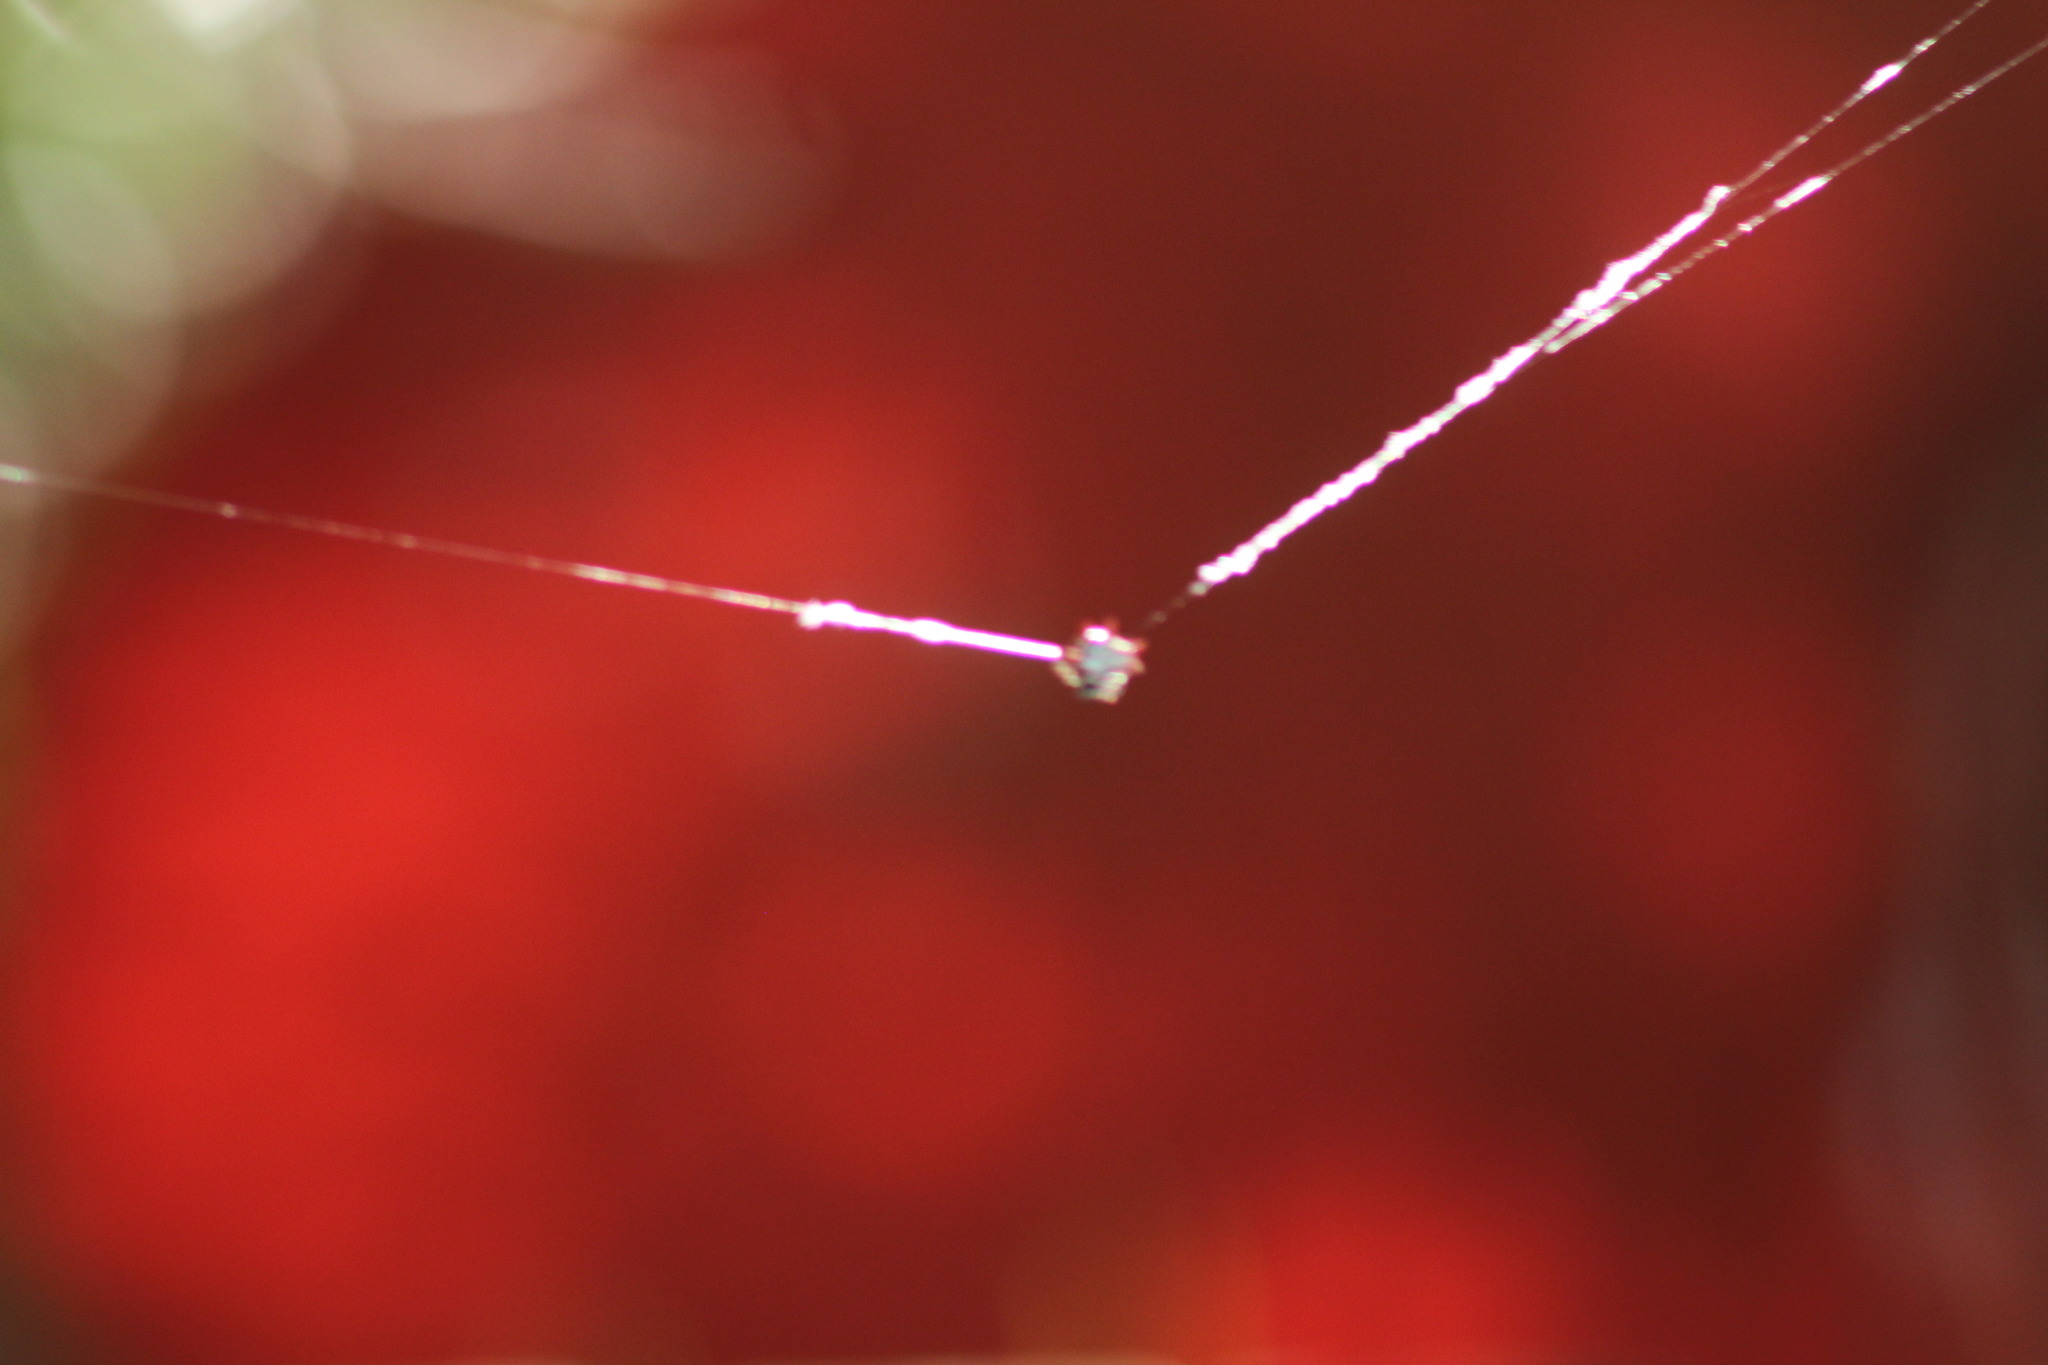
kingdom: Animalia
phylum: Arthropoda
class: Arachnida
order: Araneae
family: Araneidae
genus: Gasteracantha
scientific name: Gasteracantha cancriformis
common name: Orb weavers
